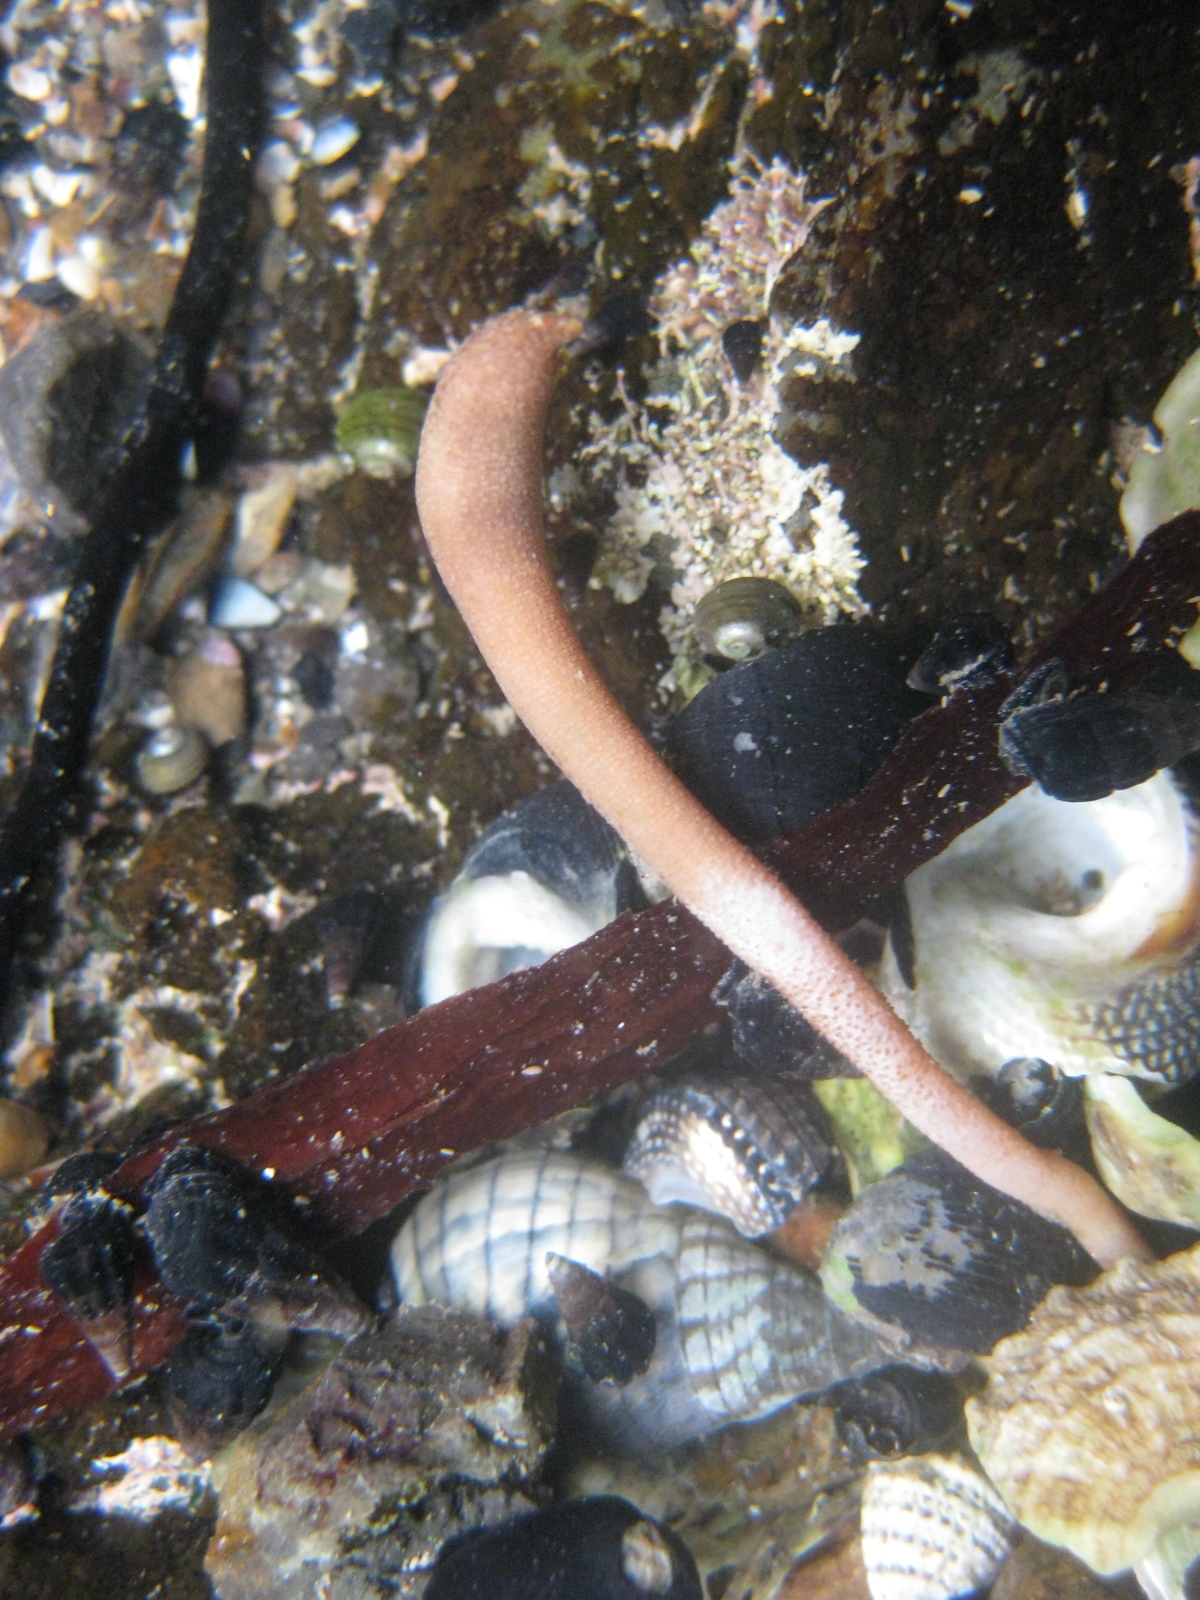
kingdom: Animalia
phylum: Sipuncula
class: Phascolosomatidea
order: Phascolosomatiformes
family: Phascolosomatidae
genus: Phascolosoma
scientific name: Phascolosoma annulatum
